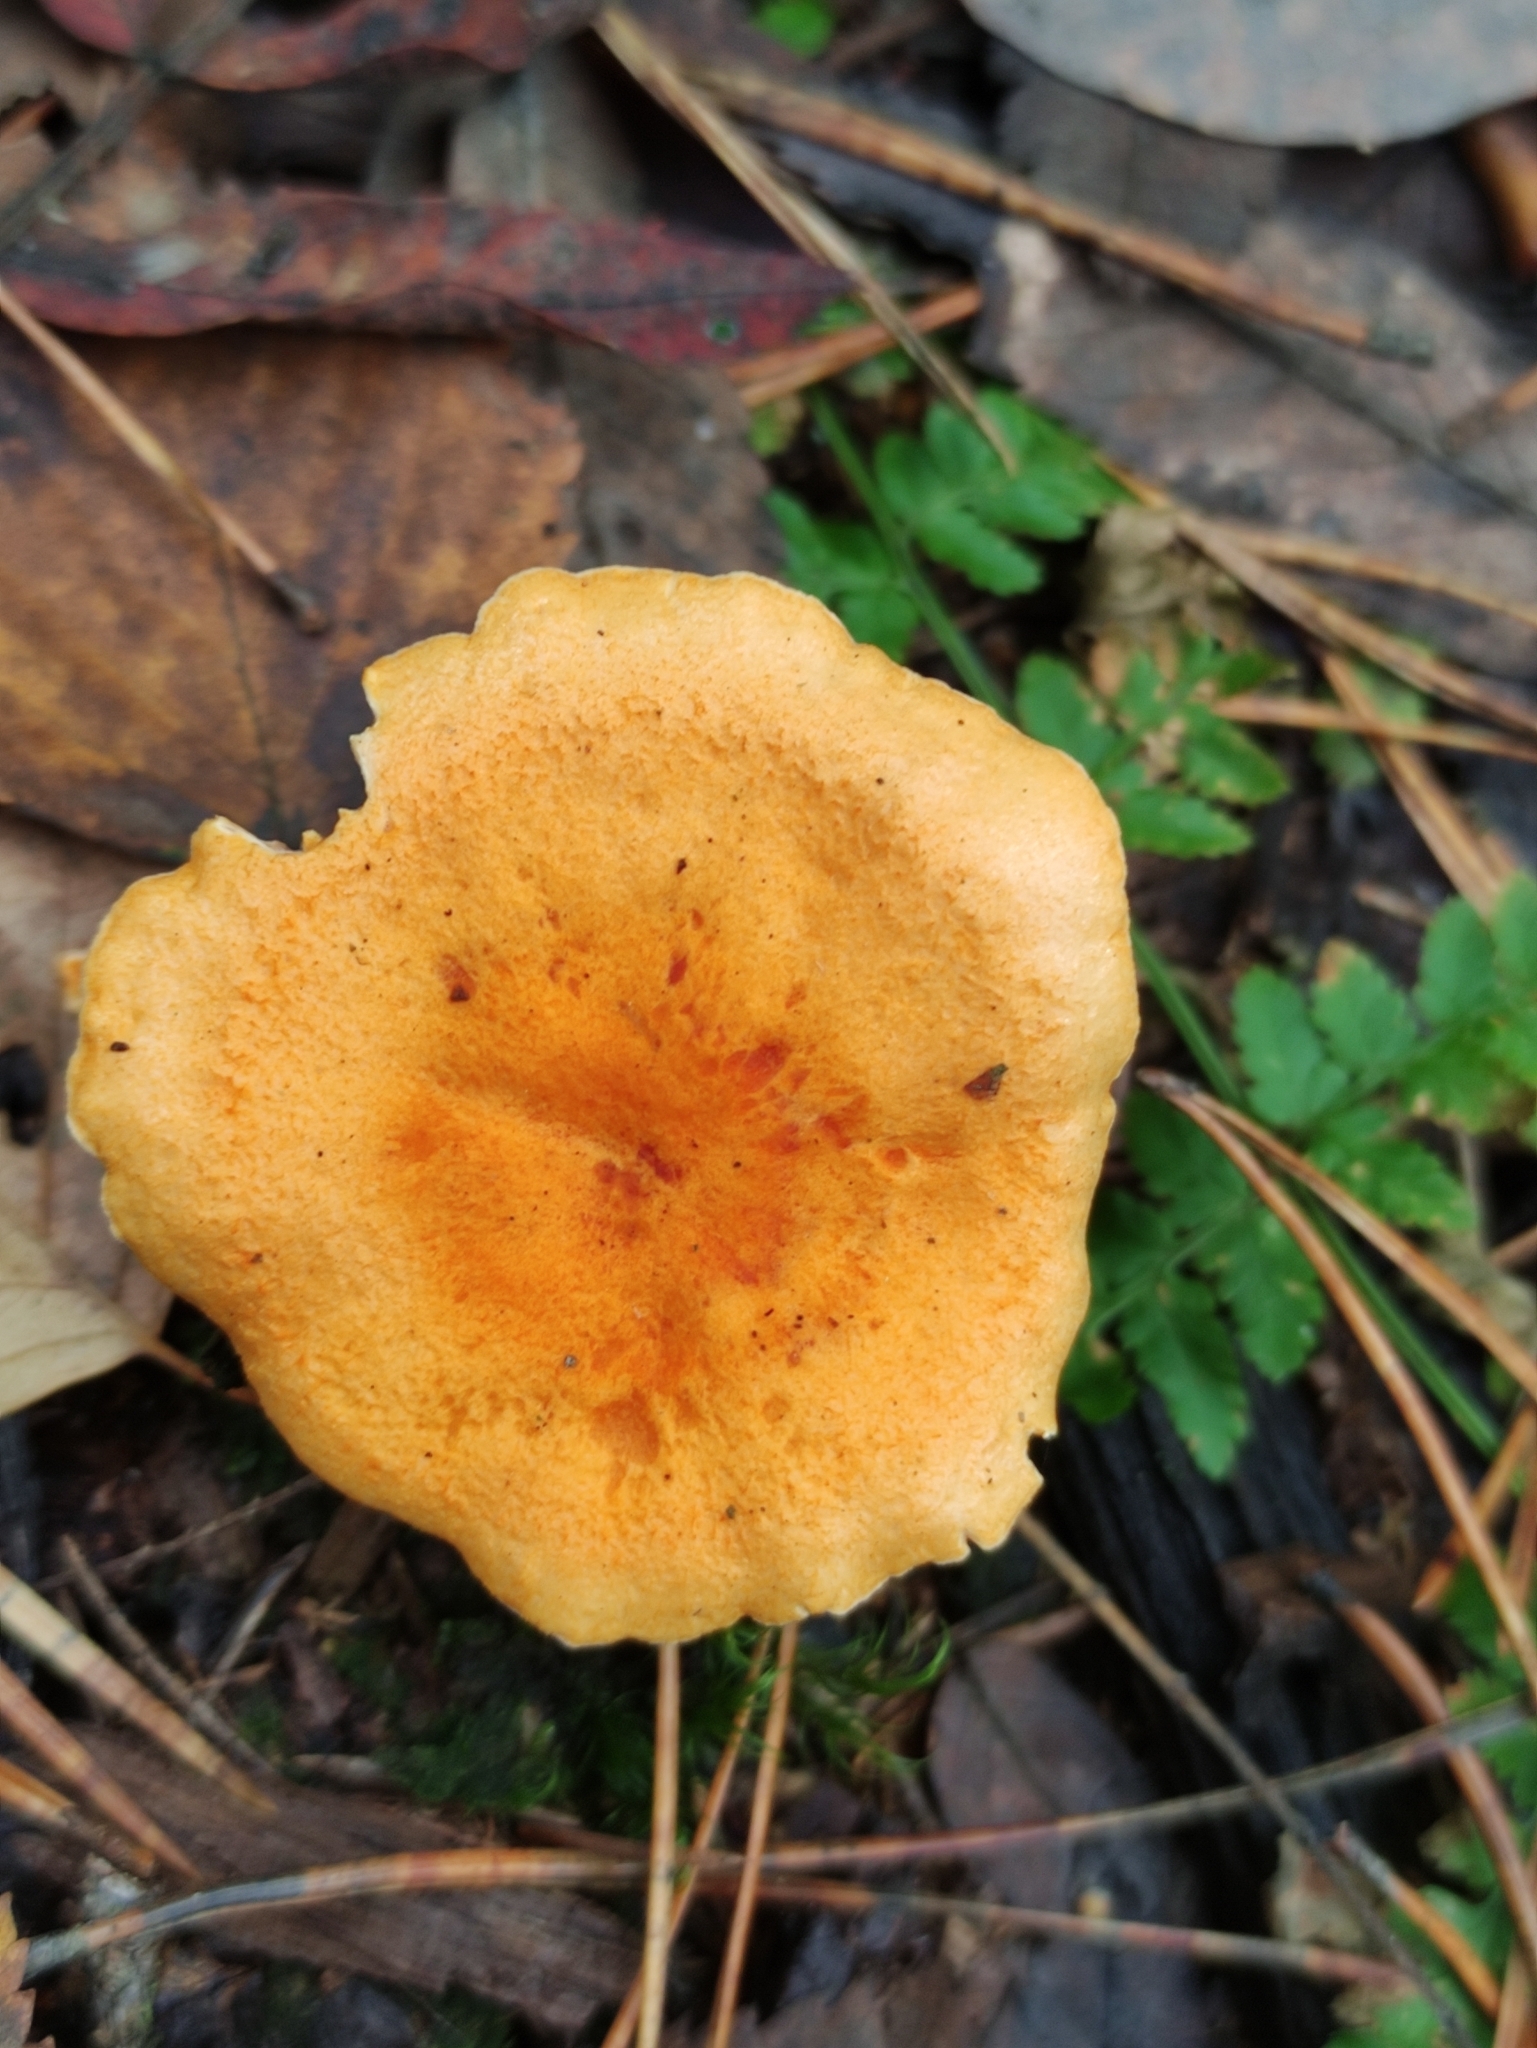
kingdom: Fungi
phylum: Basidiomycota
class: Agaricomycetes
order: Boletales
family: Hygrophoropsidaceae
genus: Hygrophoropsis
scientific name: Hygrophoropsis aurantiaca
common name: False chanterelle
